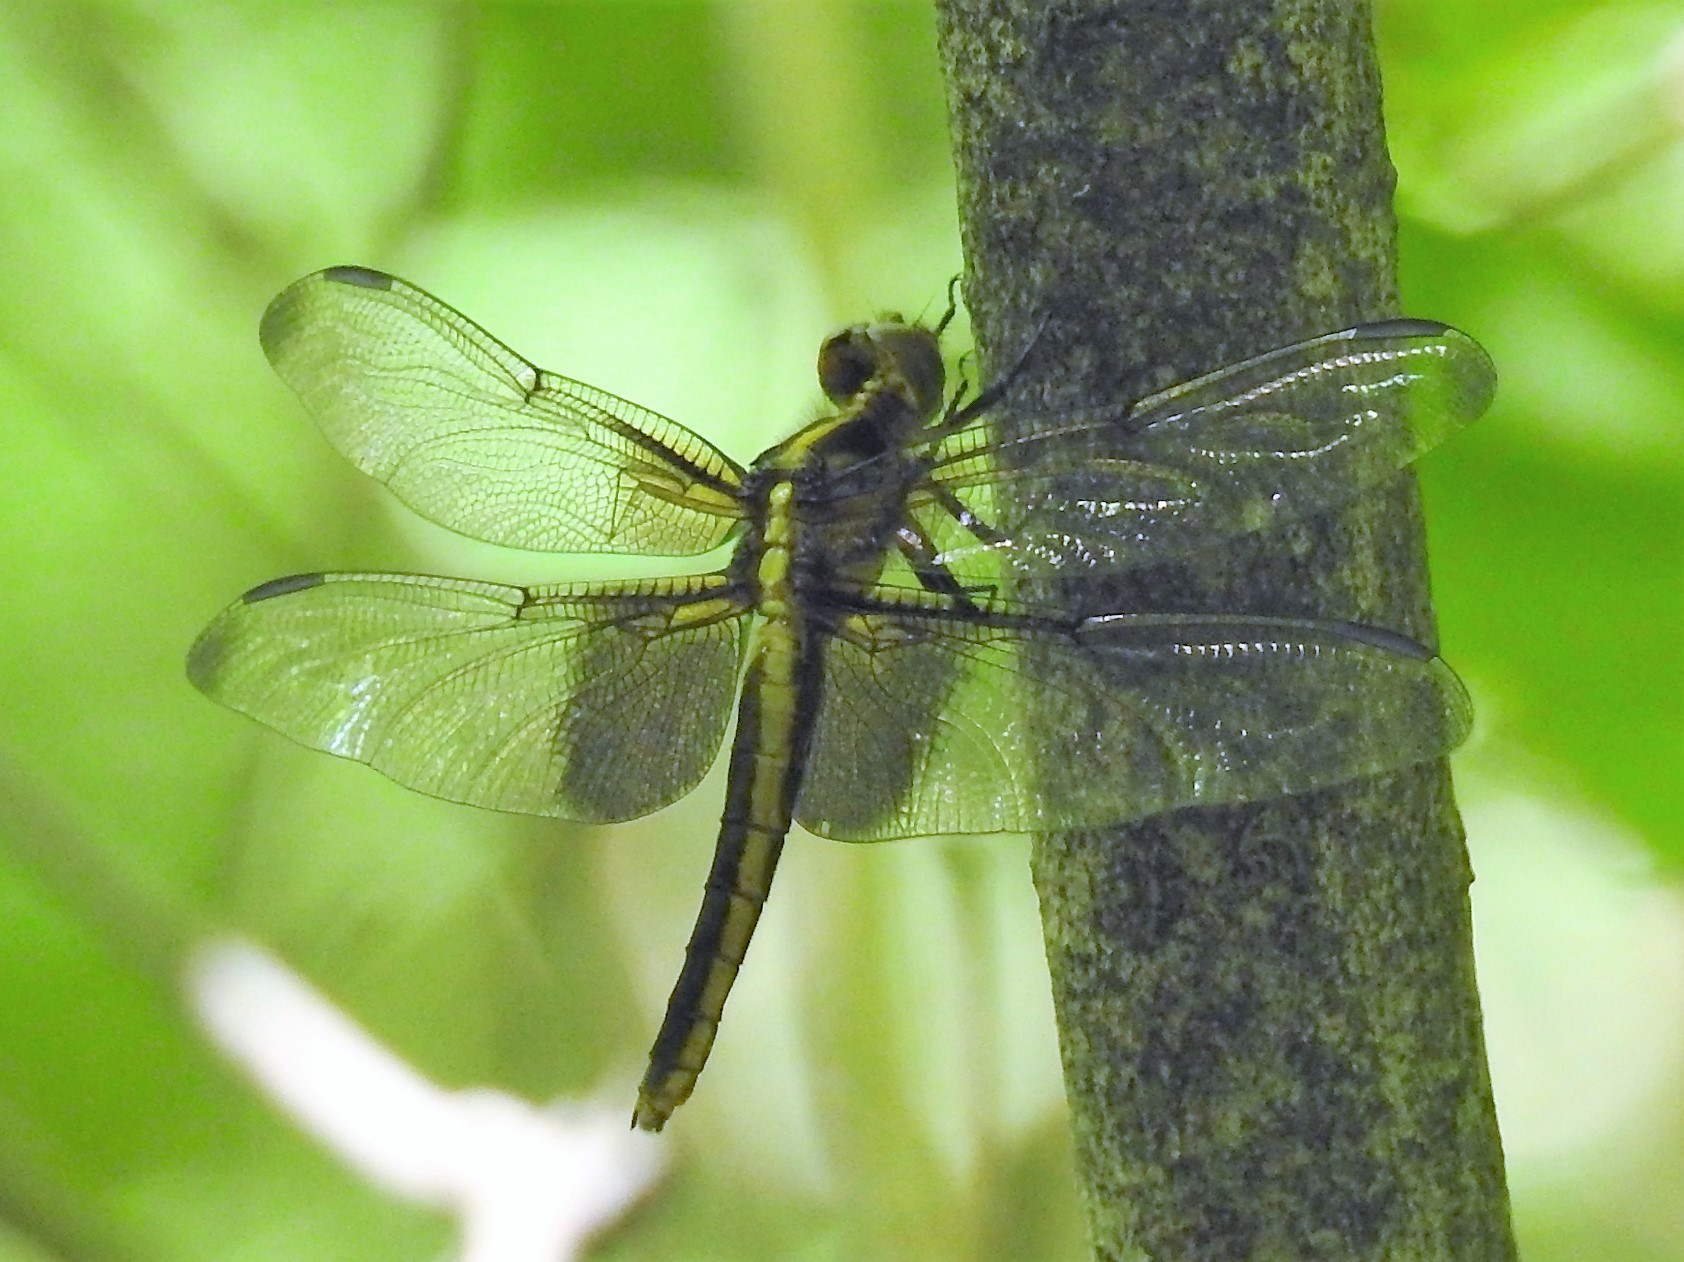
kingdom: Animalia
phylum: Arthropoda
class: Insecta
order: Odonata
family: Libellulidae
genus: Libellula
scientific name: Libellula luctuosa
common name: Widow skimmer
